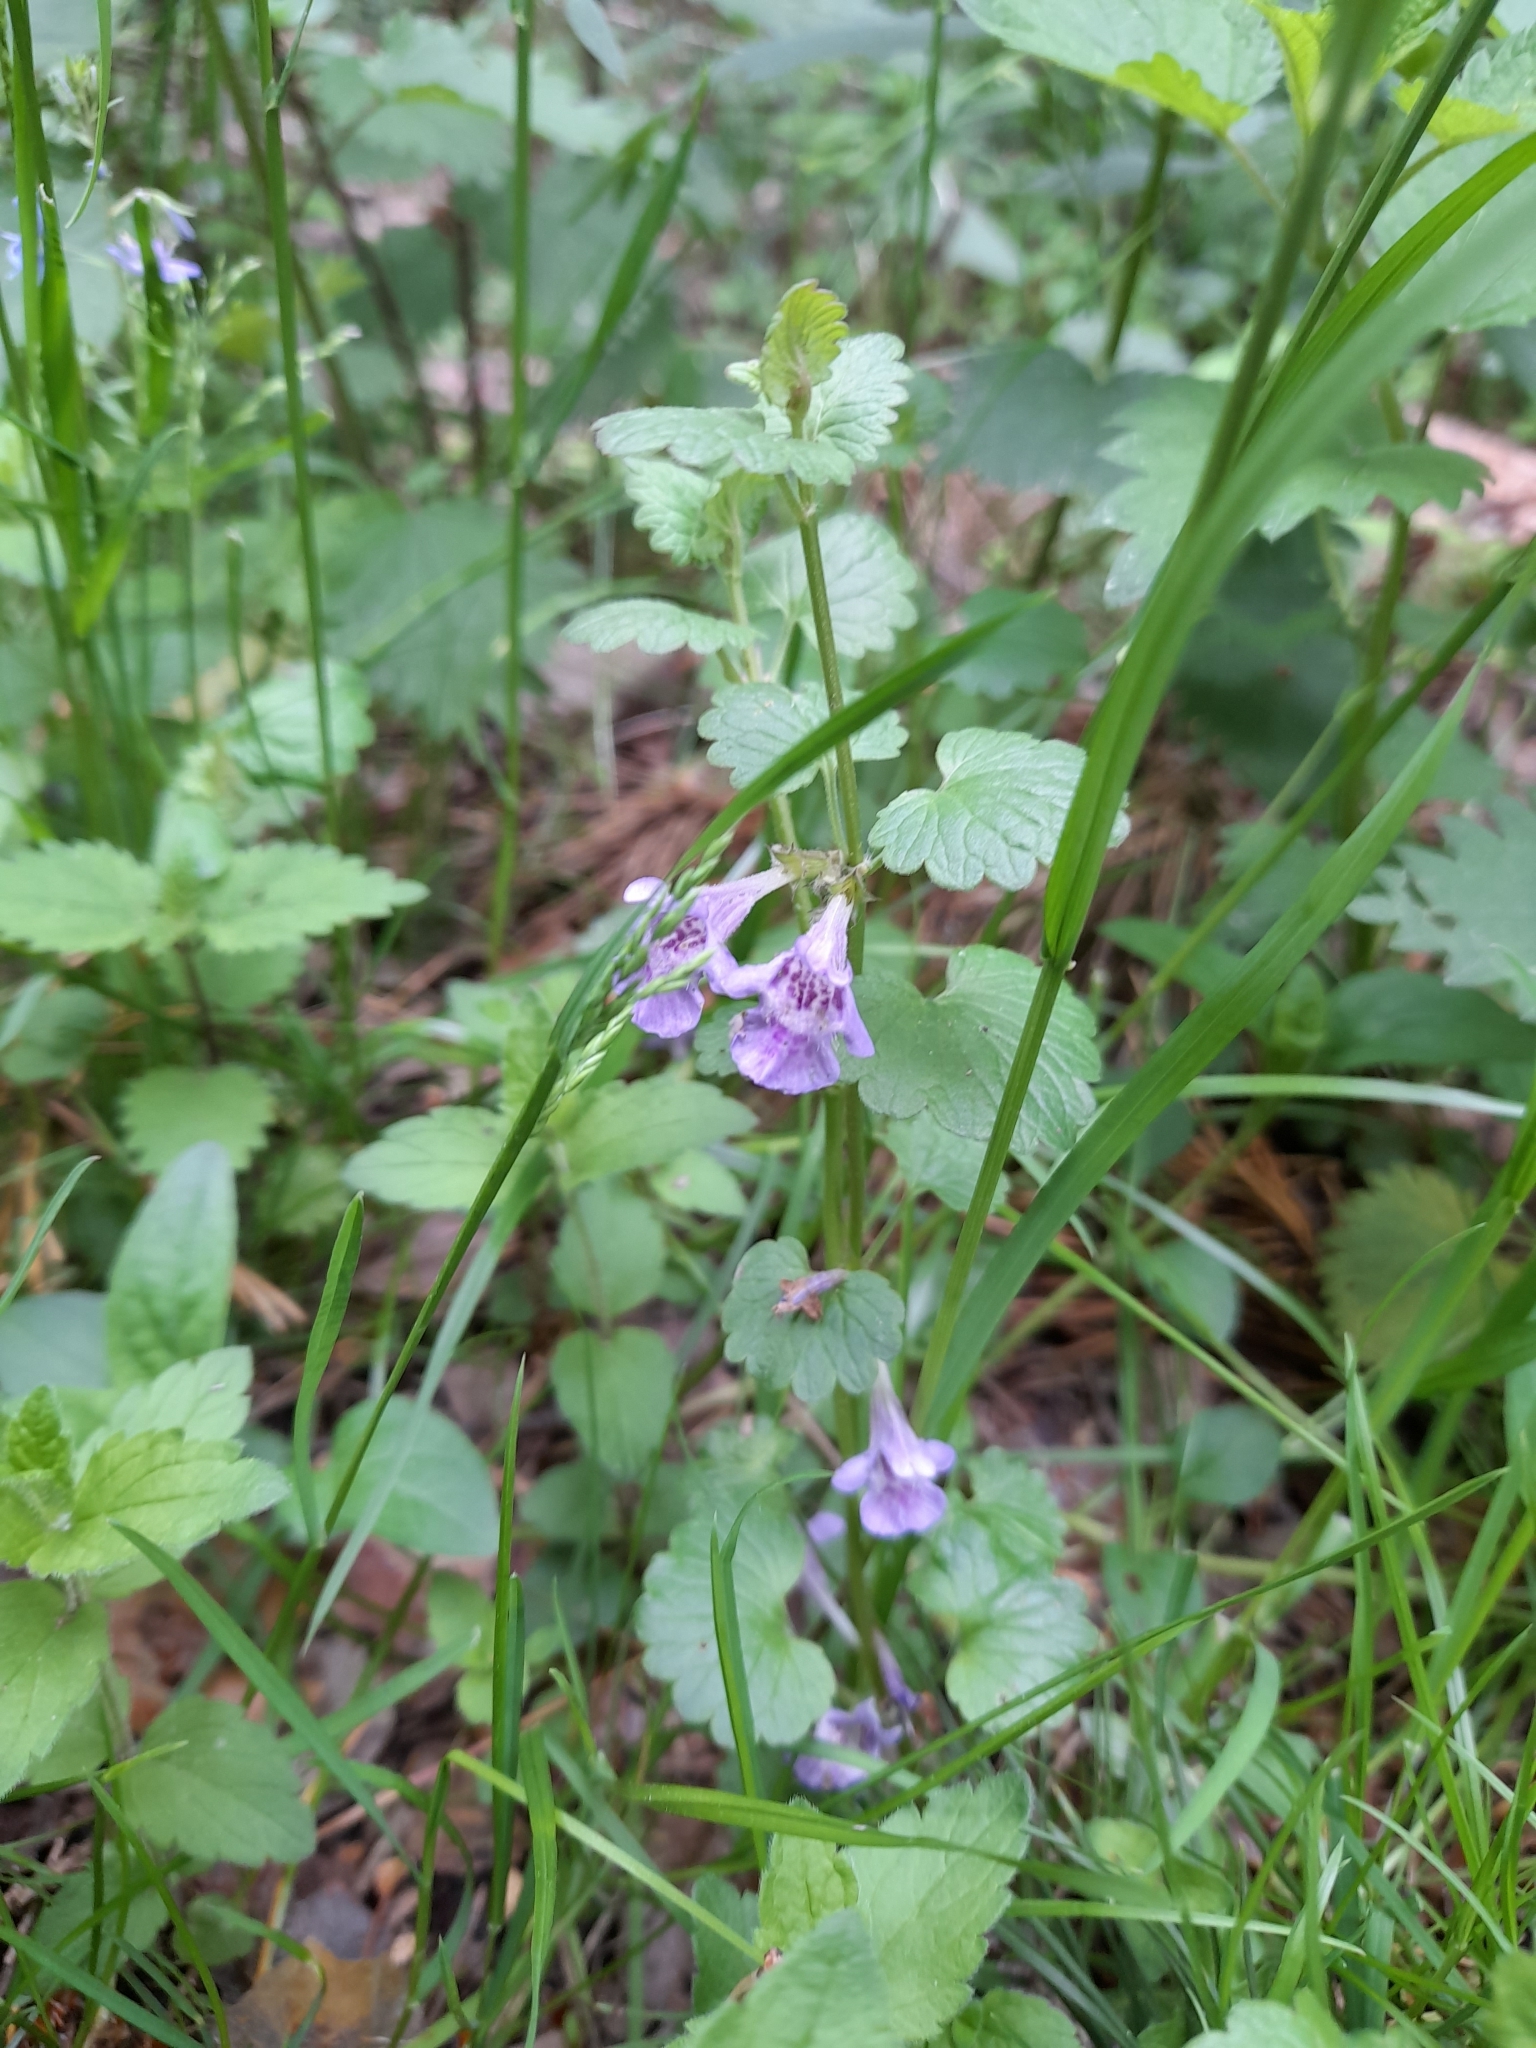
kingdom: Plantae
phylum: Tracheophyta
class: Magnoliopsida
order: Lamiales
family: Lamiaceae
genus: Glechoma
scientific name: Glechoma hederacea
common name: Ground ivy
